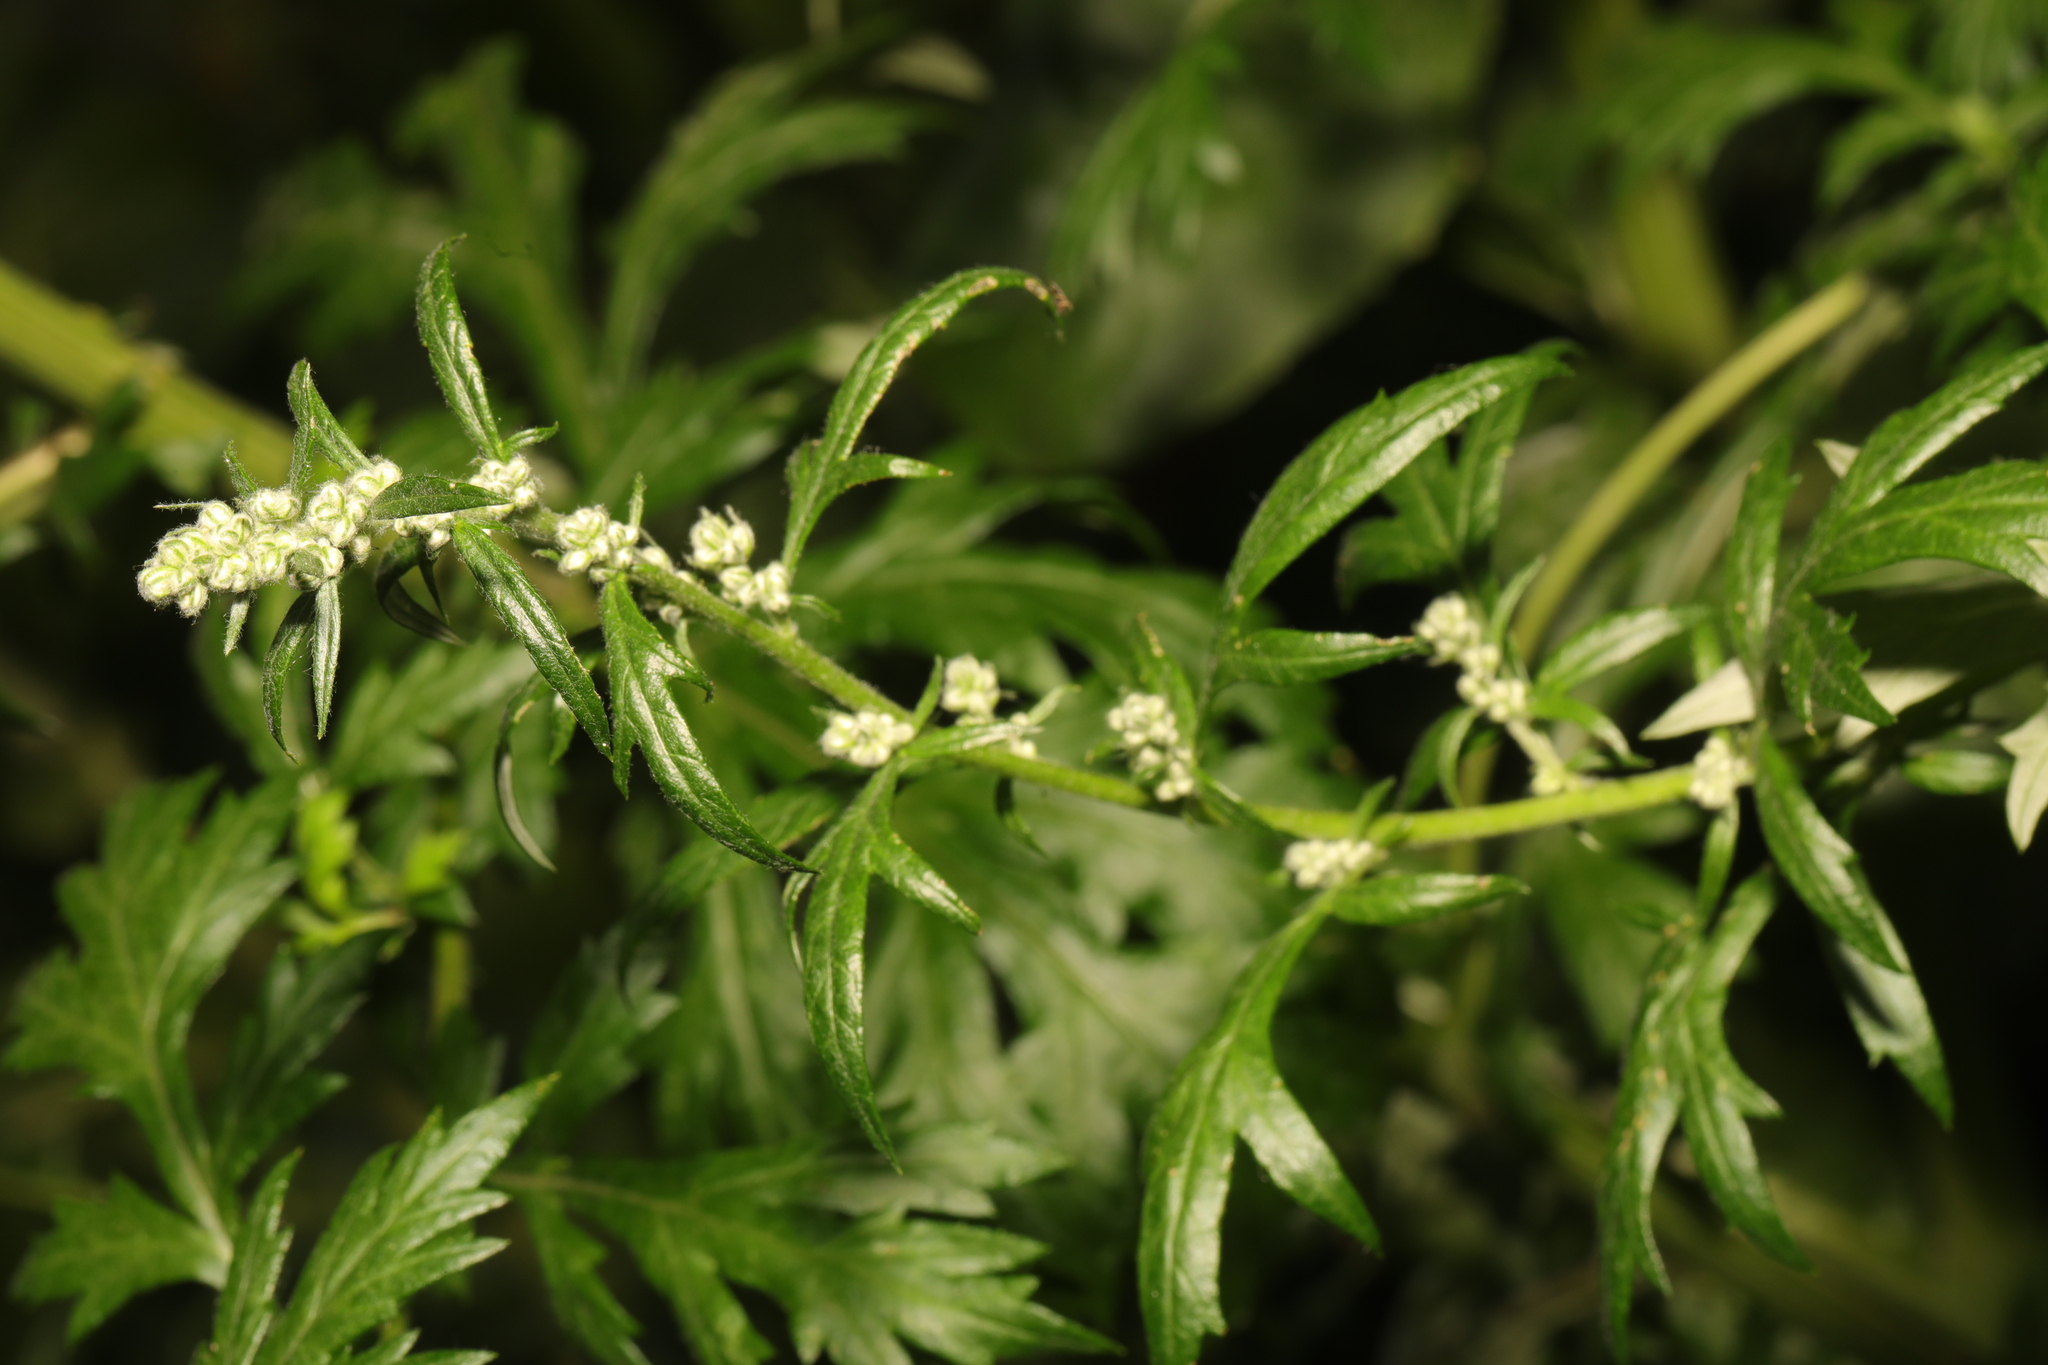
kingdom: Plantae
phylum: Tracheophyta
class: Magnoliopsida
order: Asterales
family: Asteraceae
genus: Artemisia
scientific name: Artemisia vulgaris
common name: Mugwort
